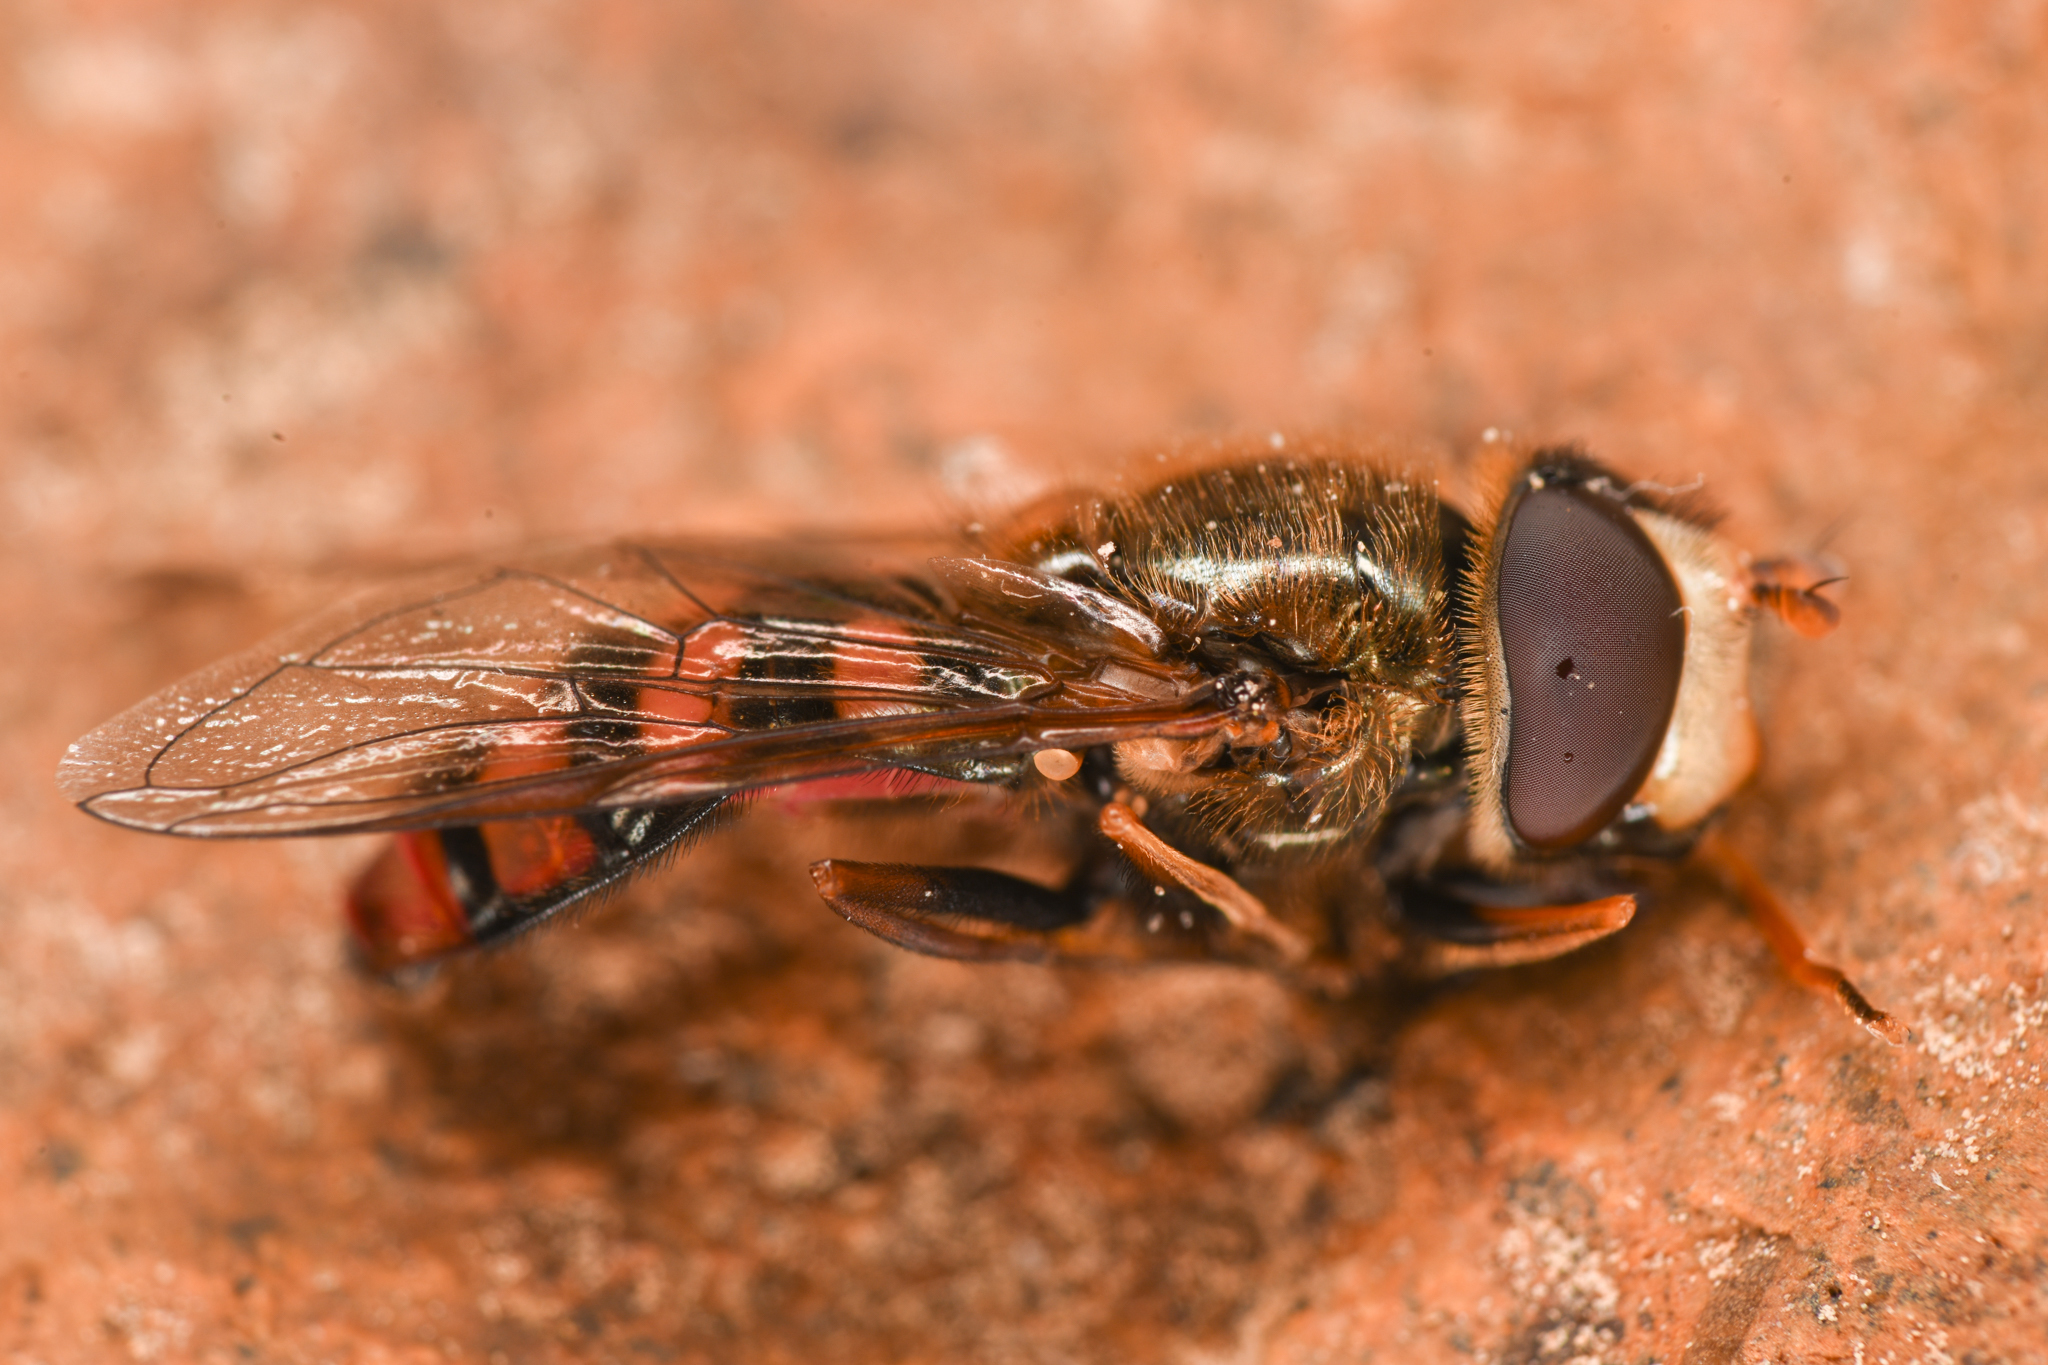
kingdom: Animalia
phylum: Arthropoda
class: Insecta
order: Diptera
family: Syrphidae
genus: Eupeodes
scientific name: Eupeodes montivagus
